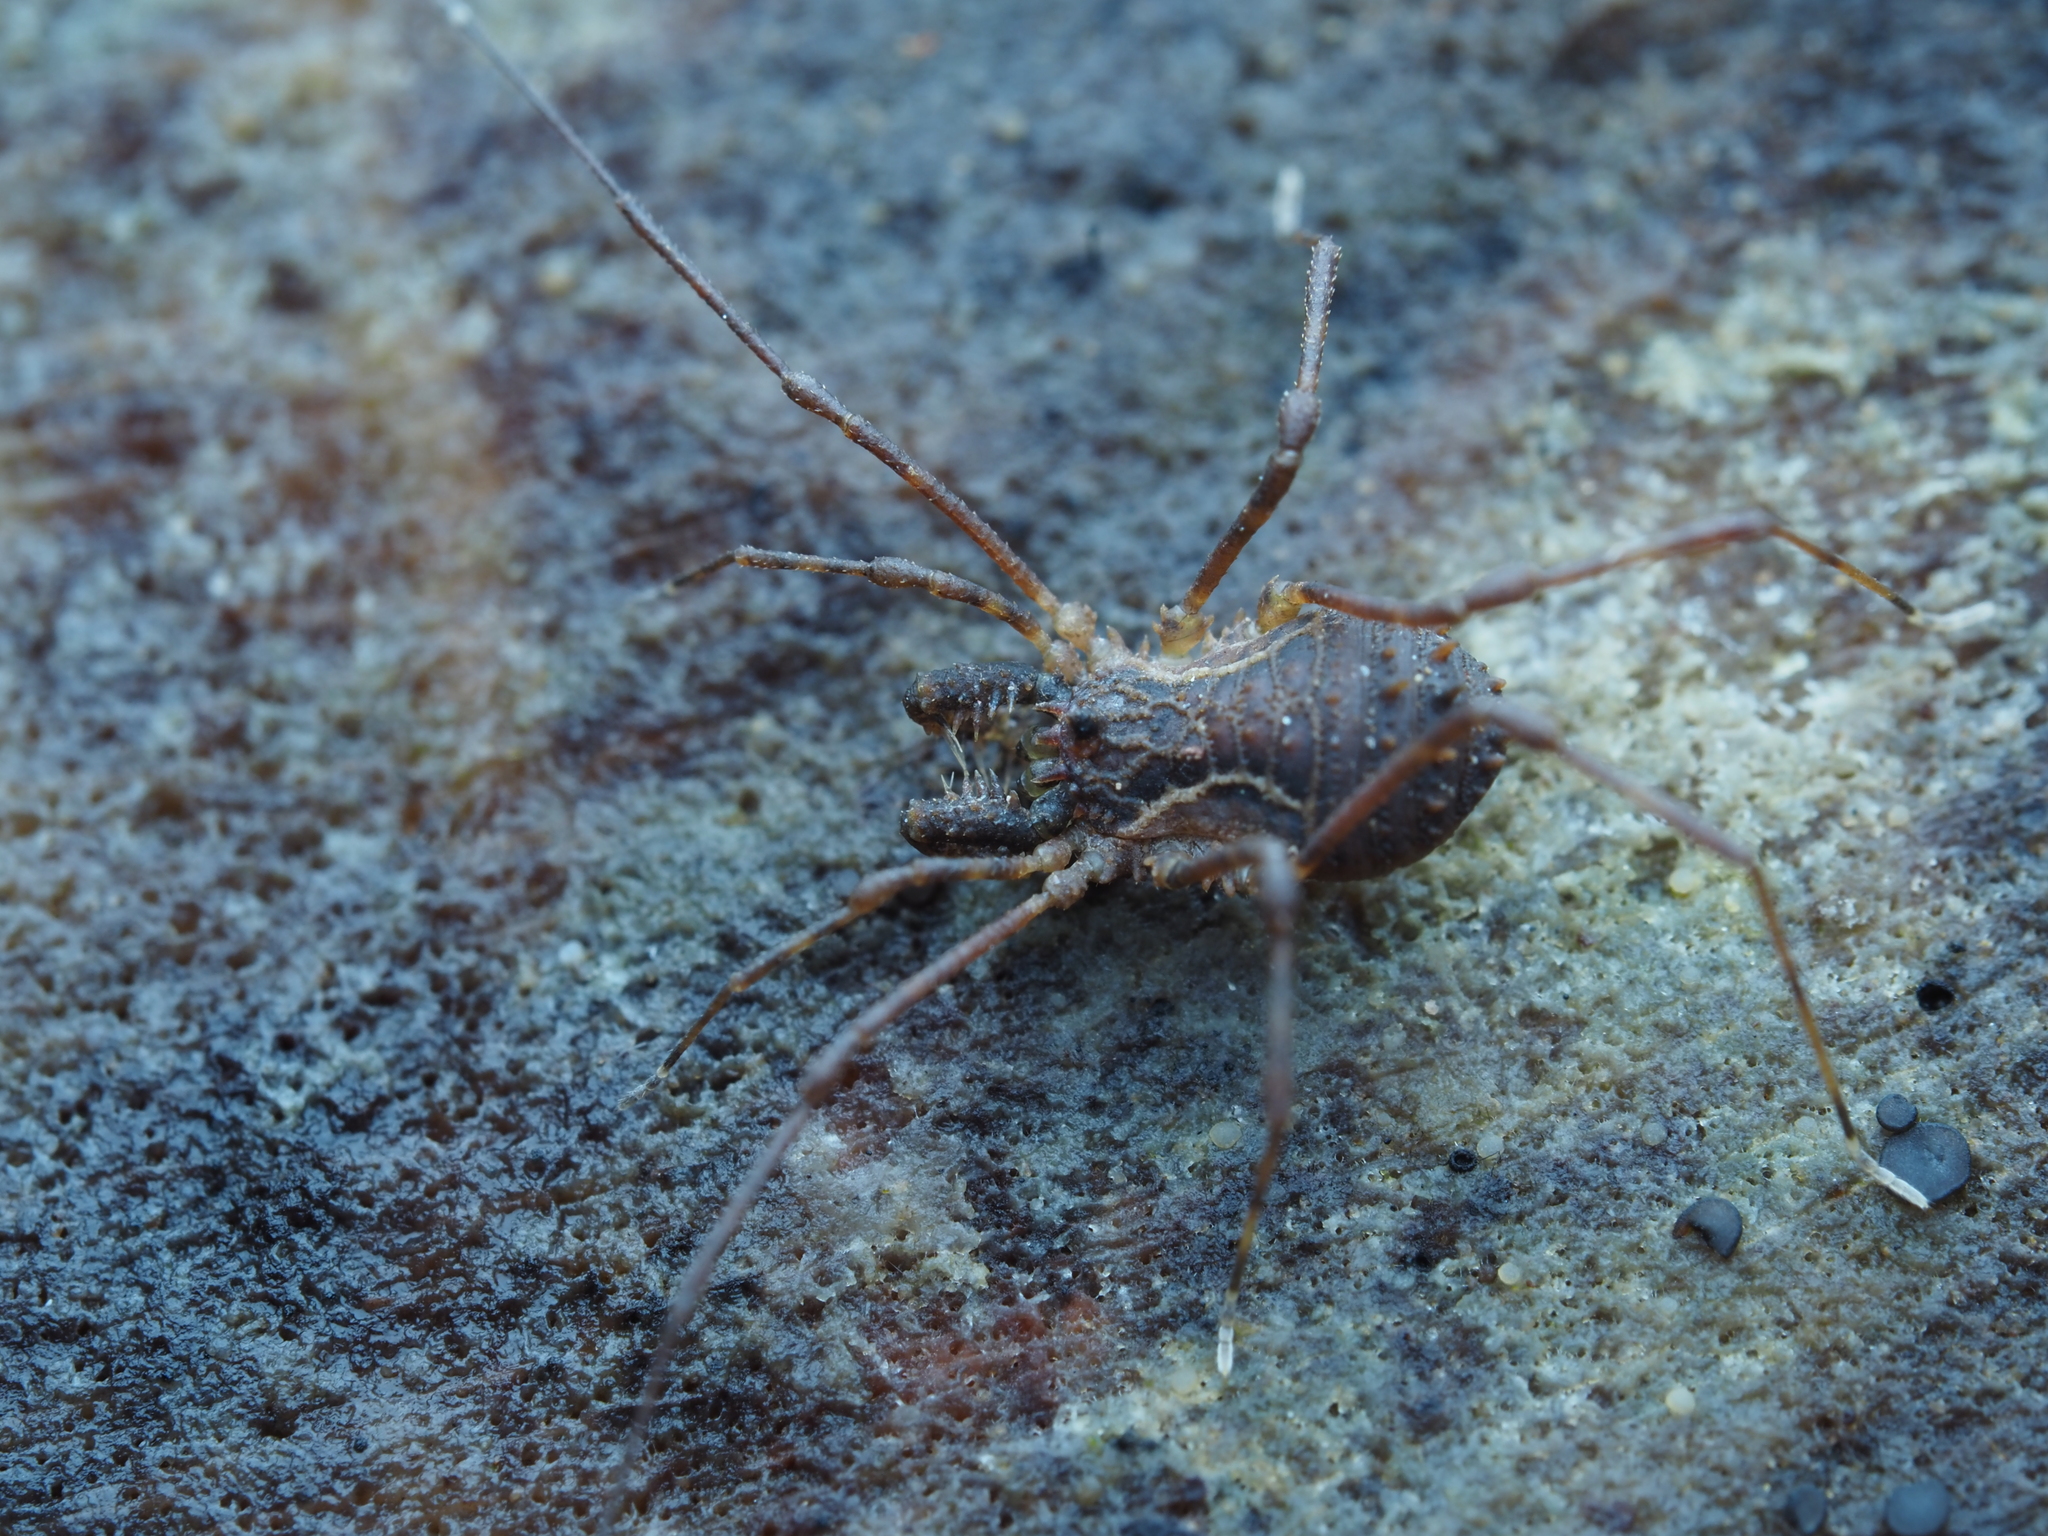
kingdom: Animalia
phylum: Arthropoda
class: Arachnida
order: Opiliones
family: Triaenonychidae
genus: Algidia
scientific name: Algidia chiltoni
